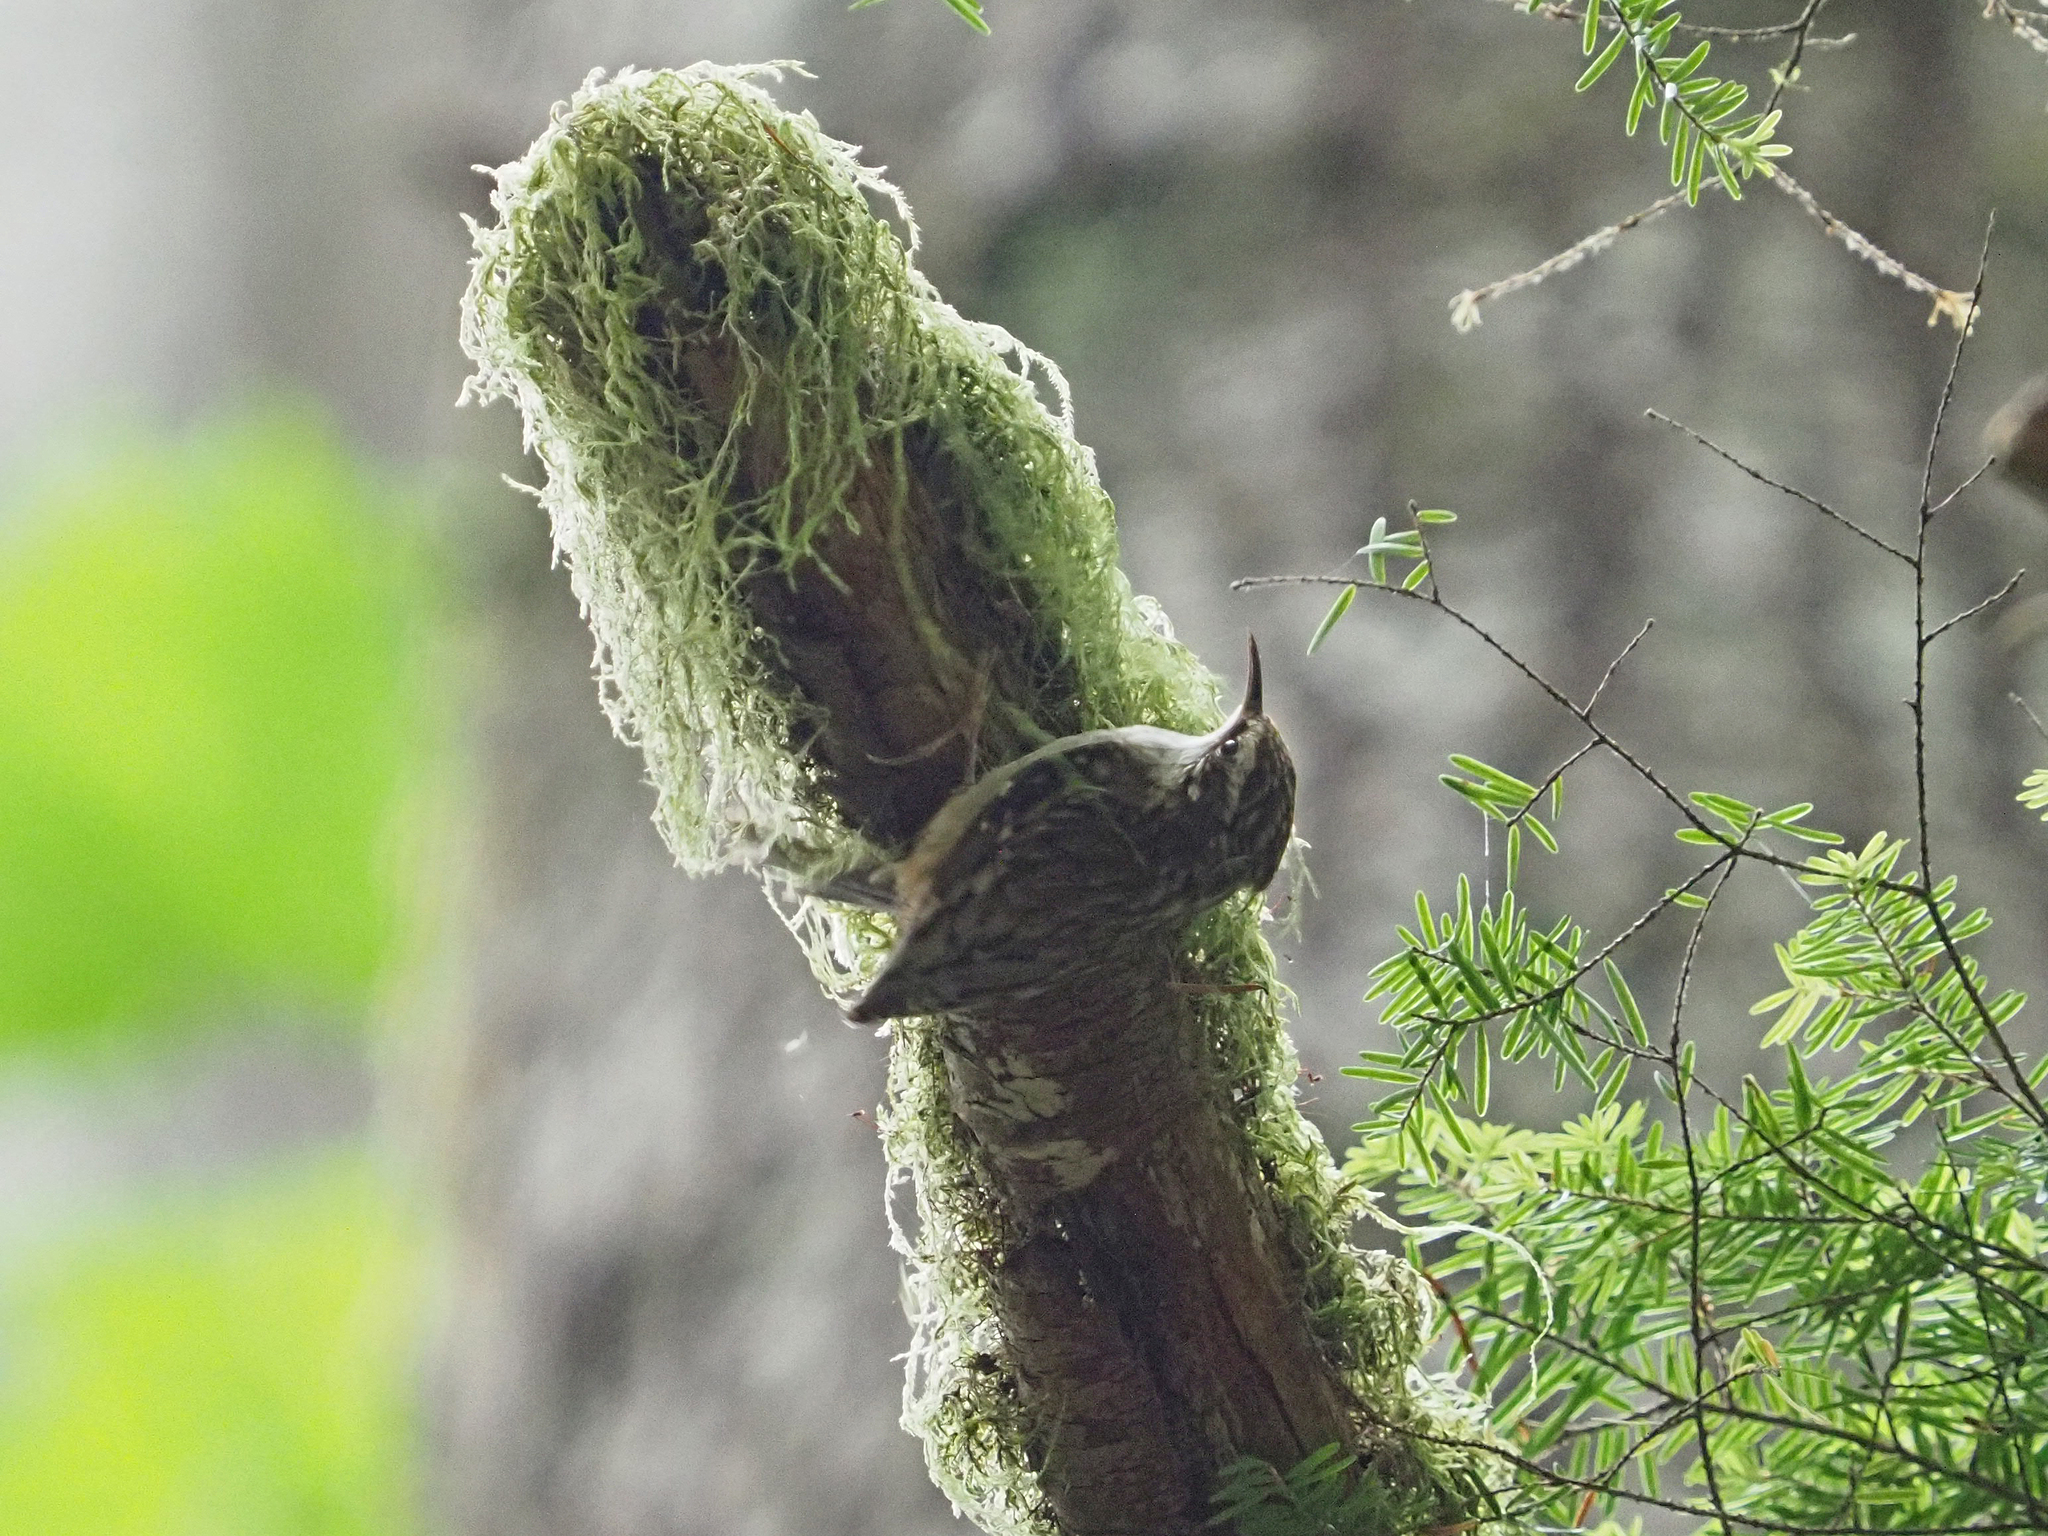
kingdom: Animalia
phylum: Chordata
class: Aves
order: Passeriformes
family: Certhiidae
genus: Certhia
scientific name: Certhia americana
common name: Brown creeper
